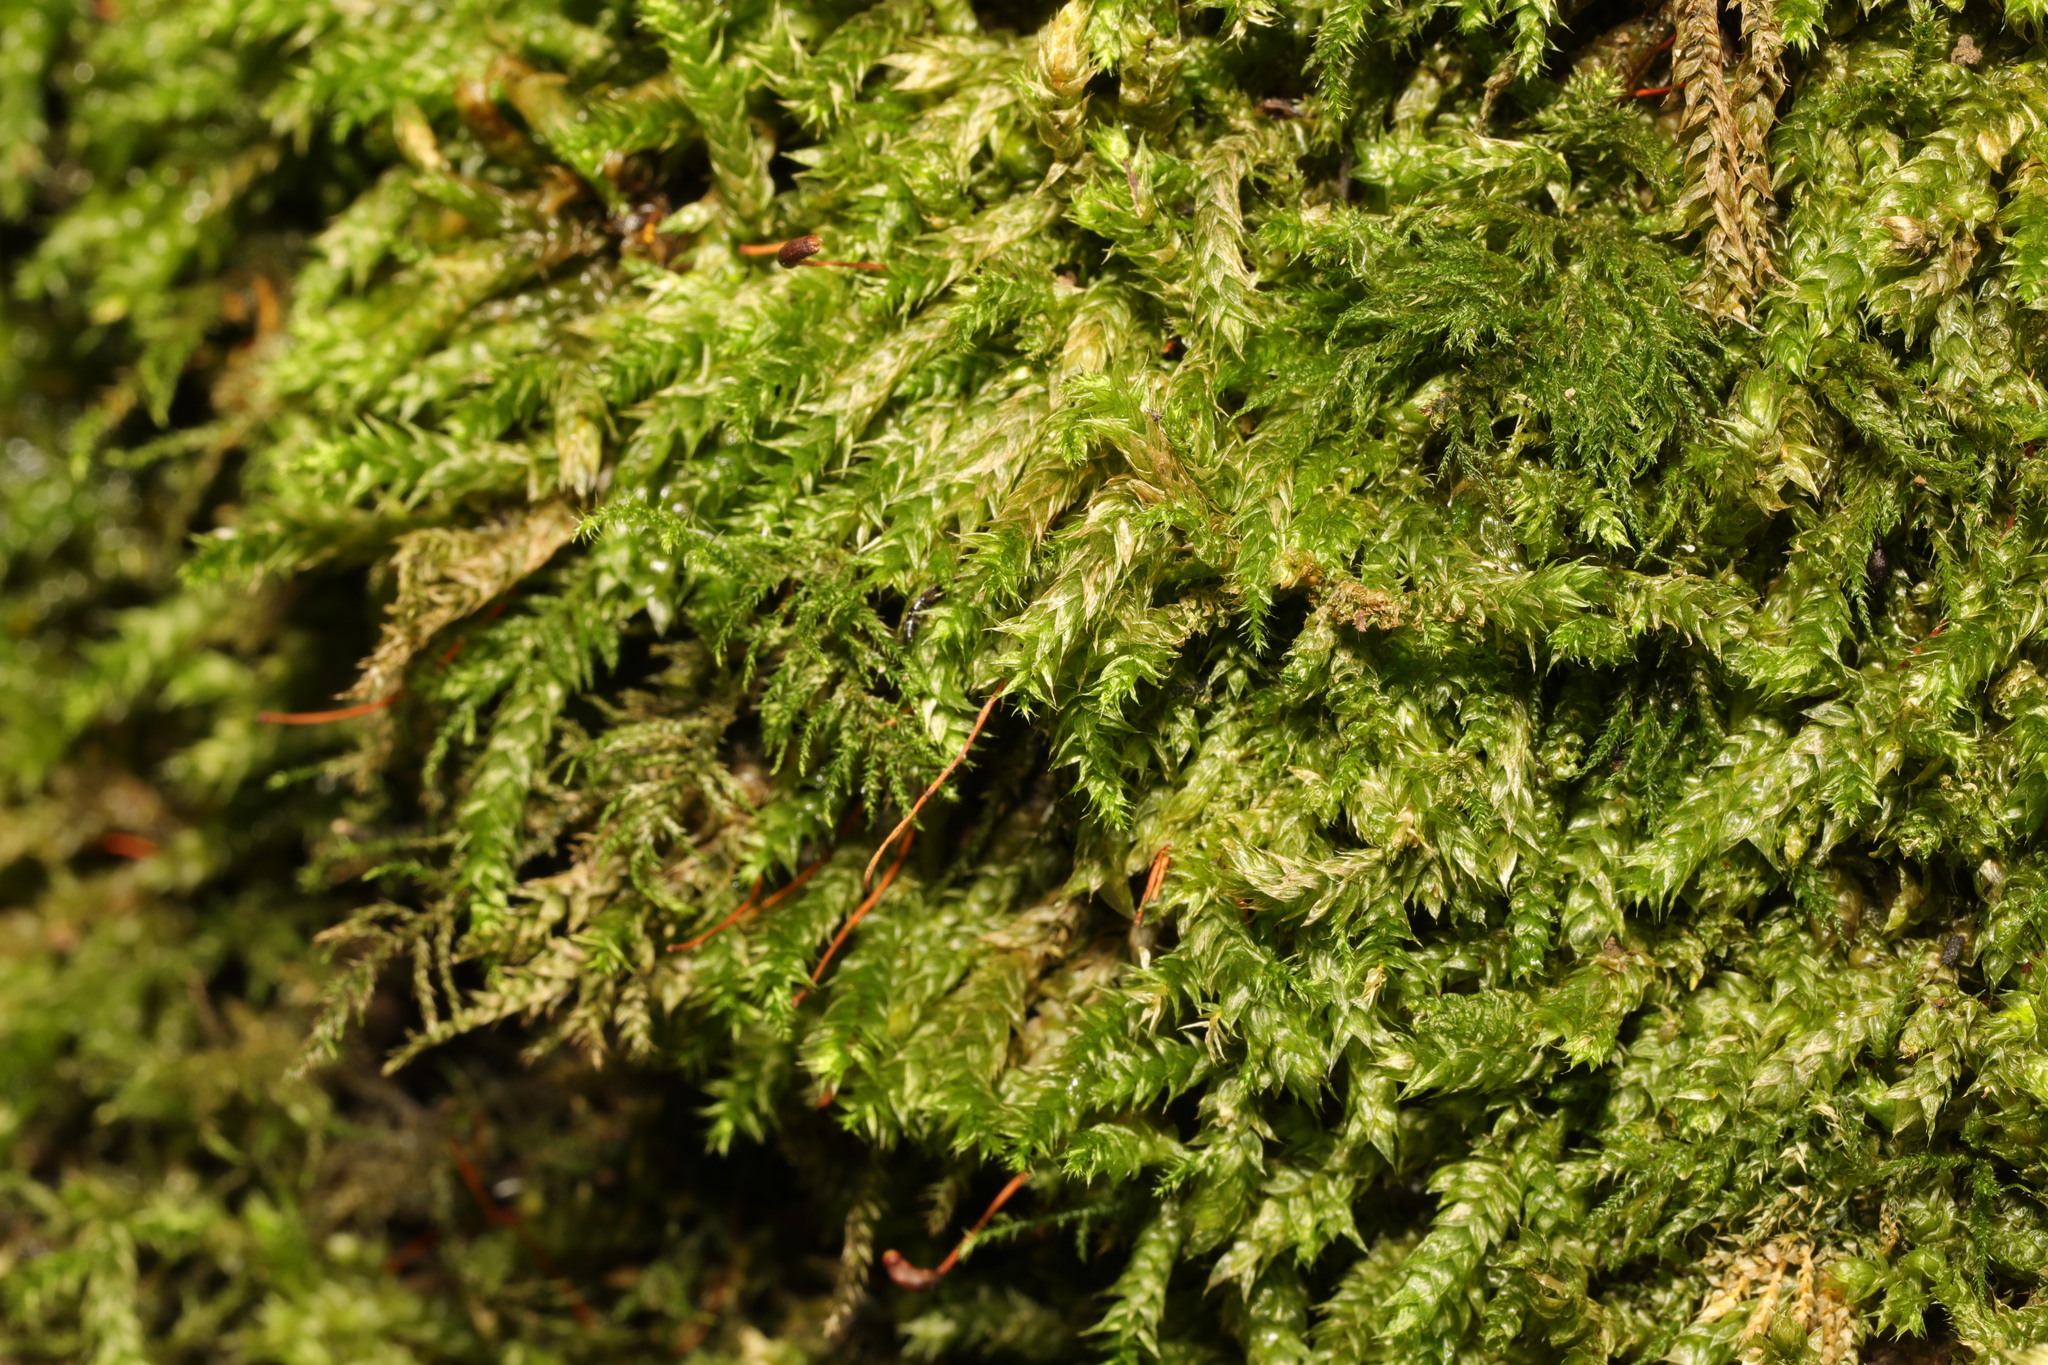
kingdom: Plantae
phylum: Bryophyta
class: Bryopsida
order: Hypnales
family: Brachytheciaceae
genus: Brachythecium
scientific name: Brachythecium rutabulum
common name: Rough-stalked feather-moss
